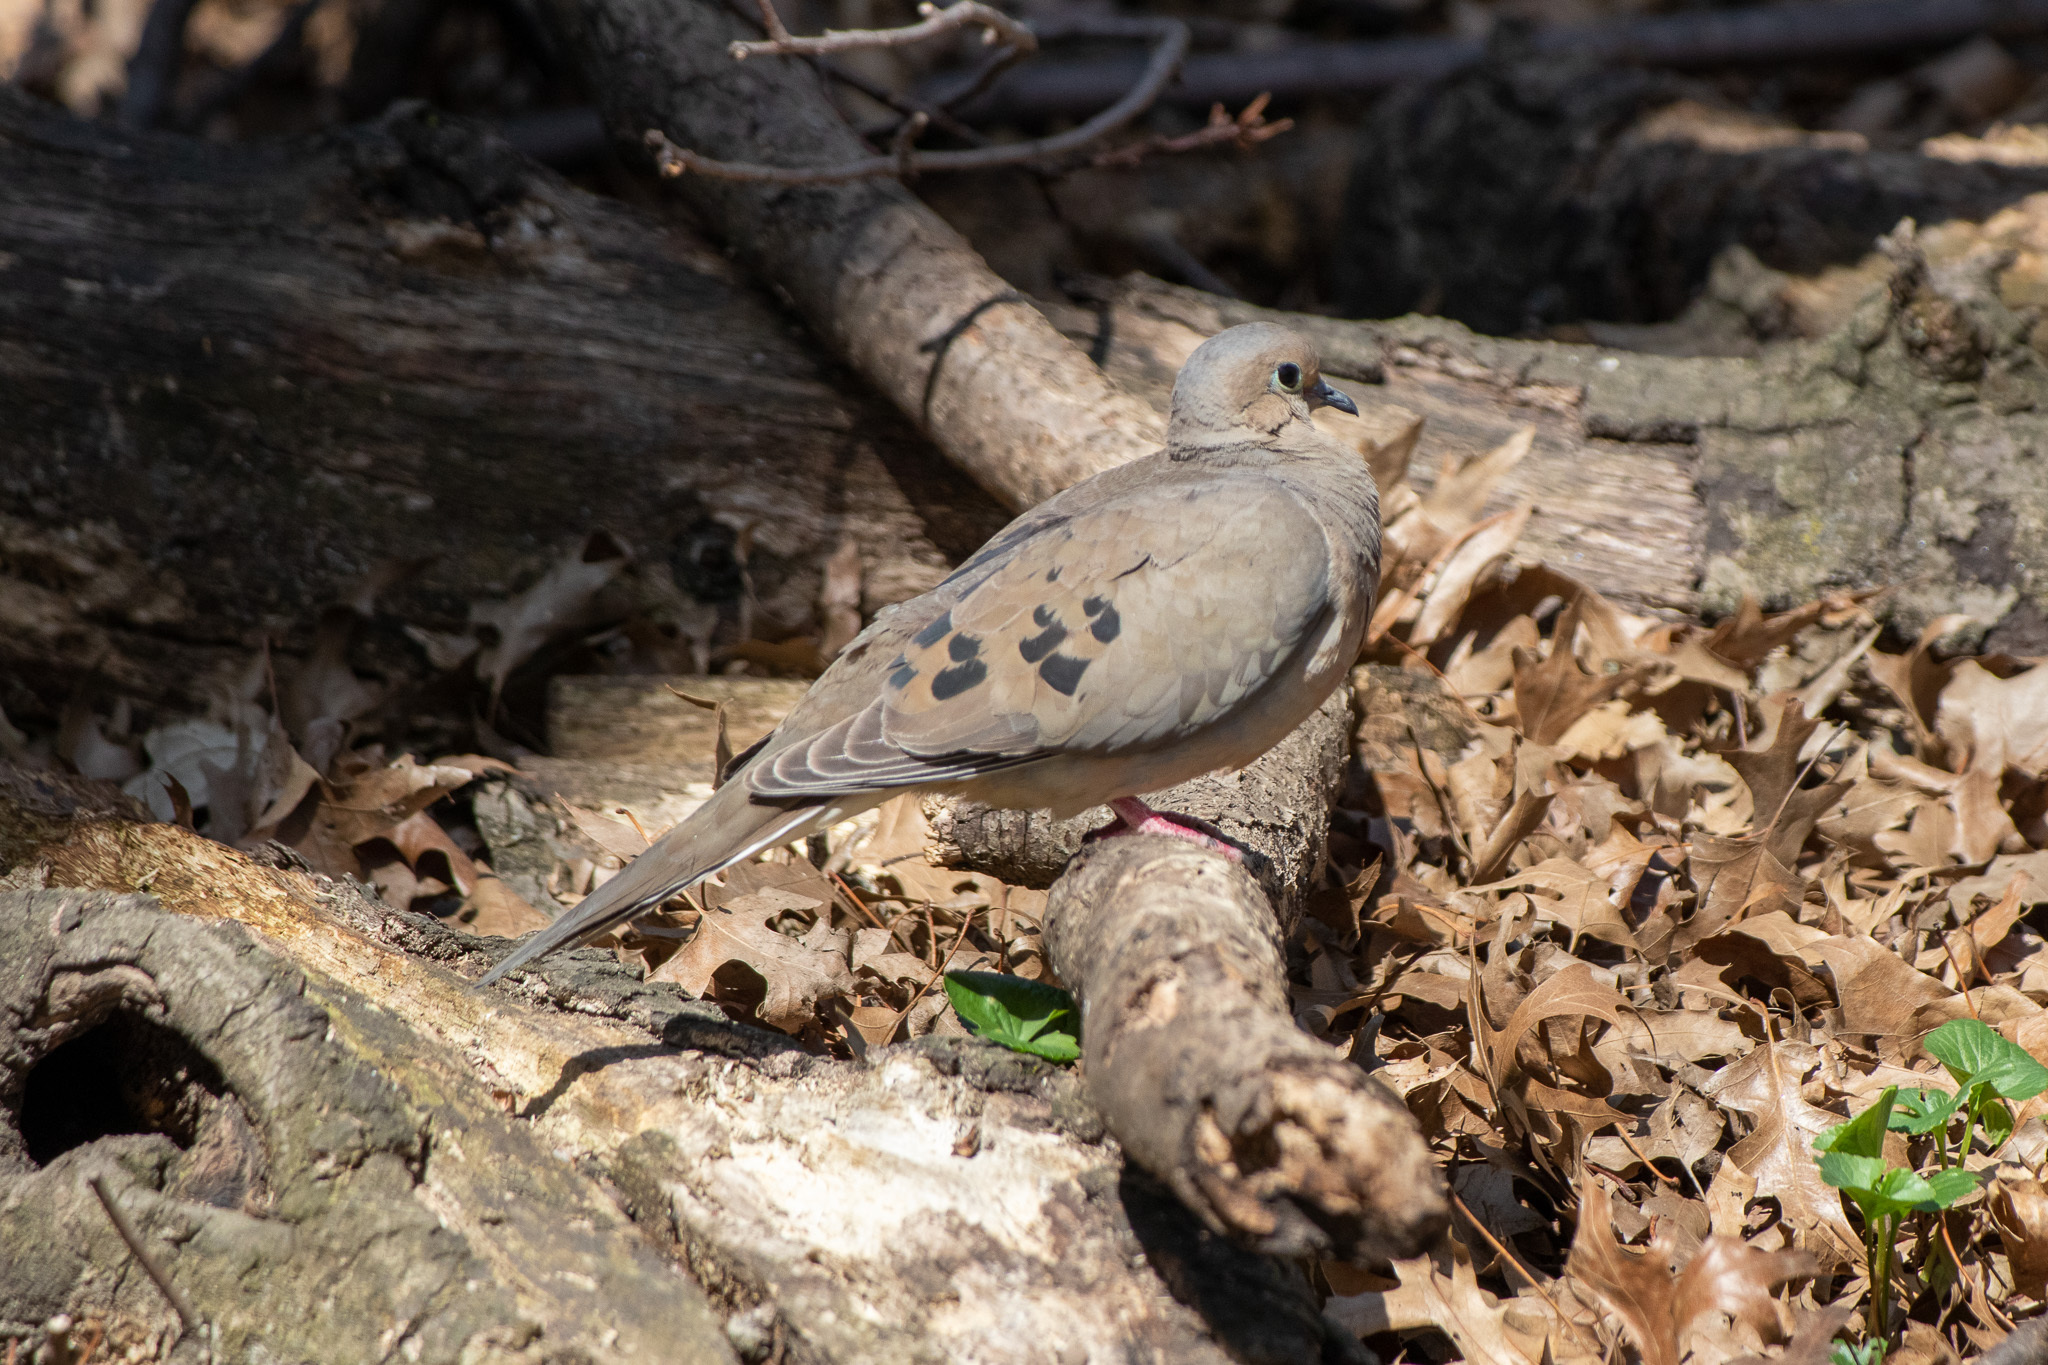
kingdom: Animalia
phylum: Chordata
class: Aves
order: Columbiformes
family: Columbidae
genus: Zenaida
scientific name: Zenaida macroura
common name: Mourning dove
